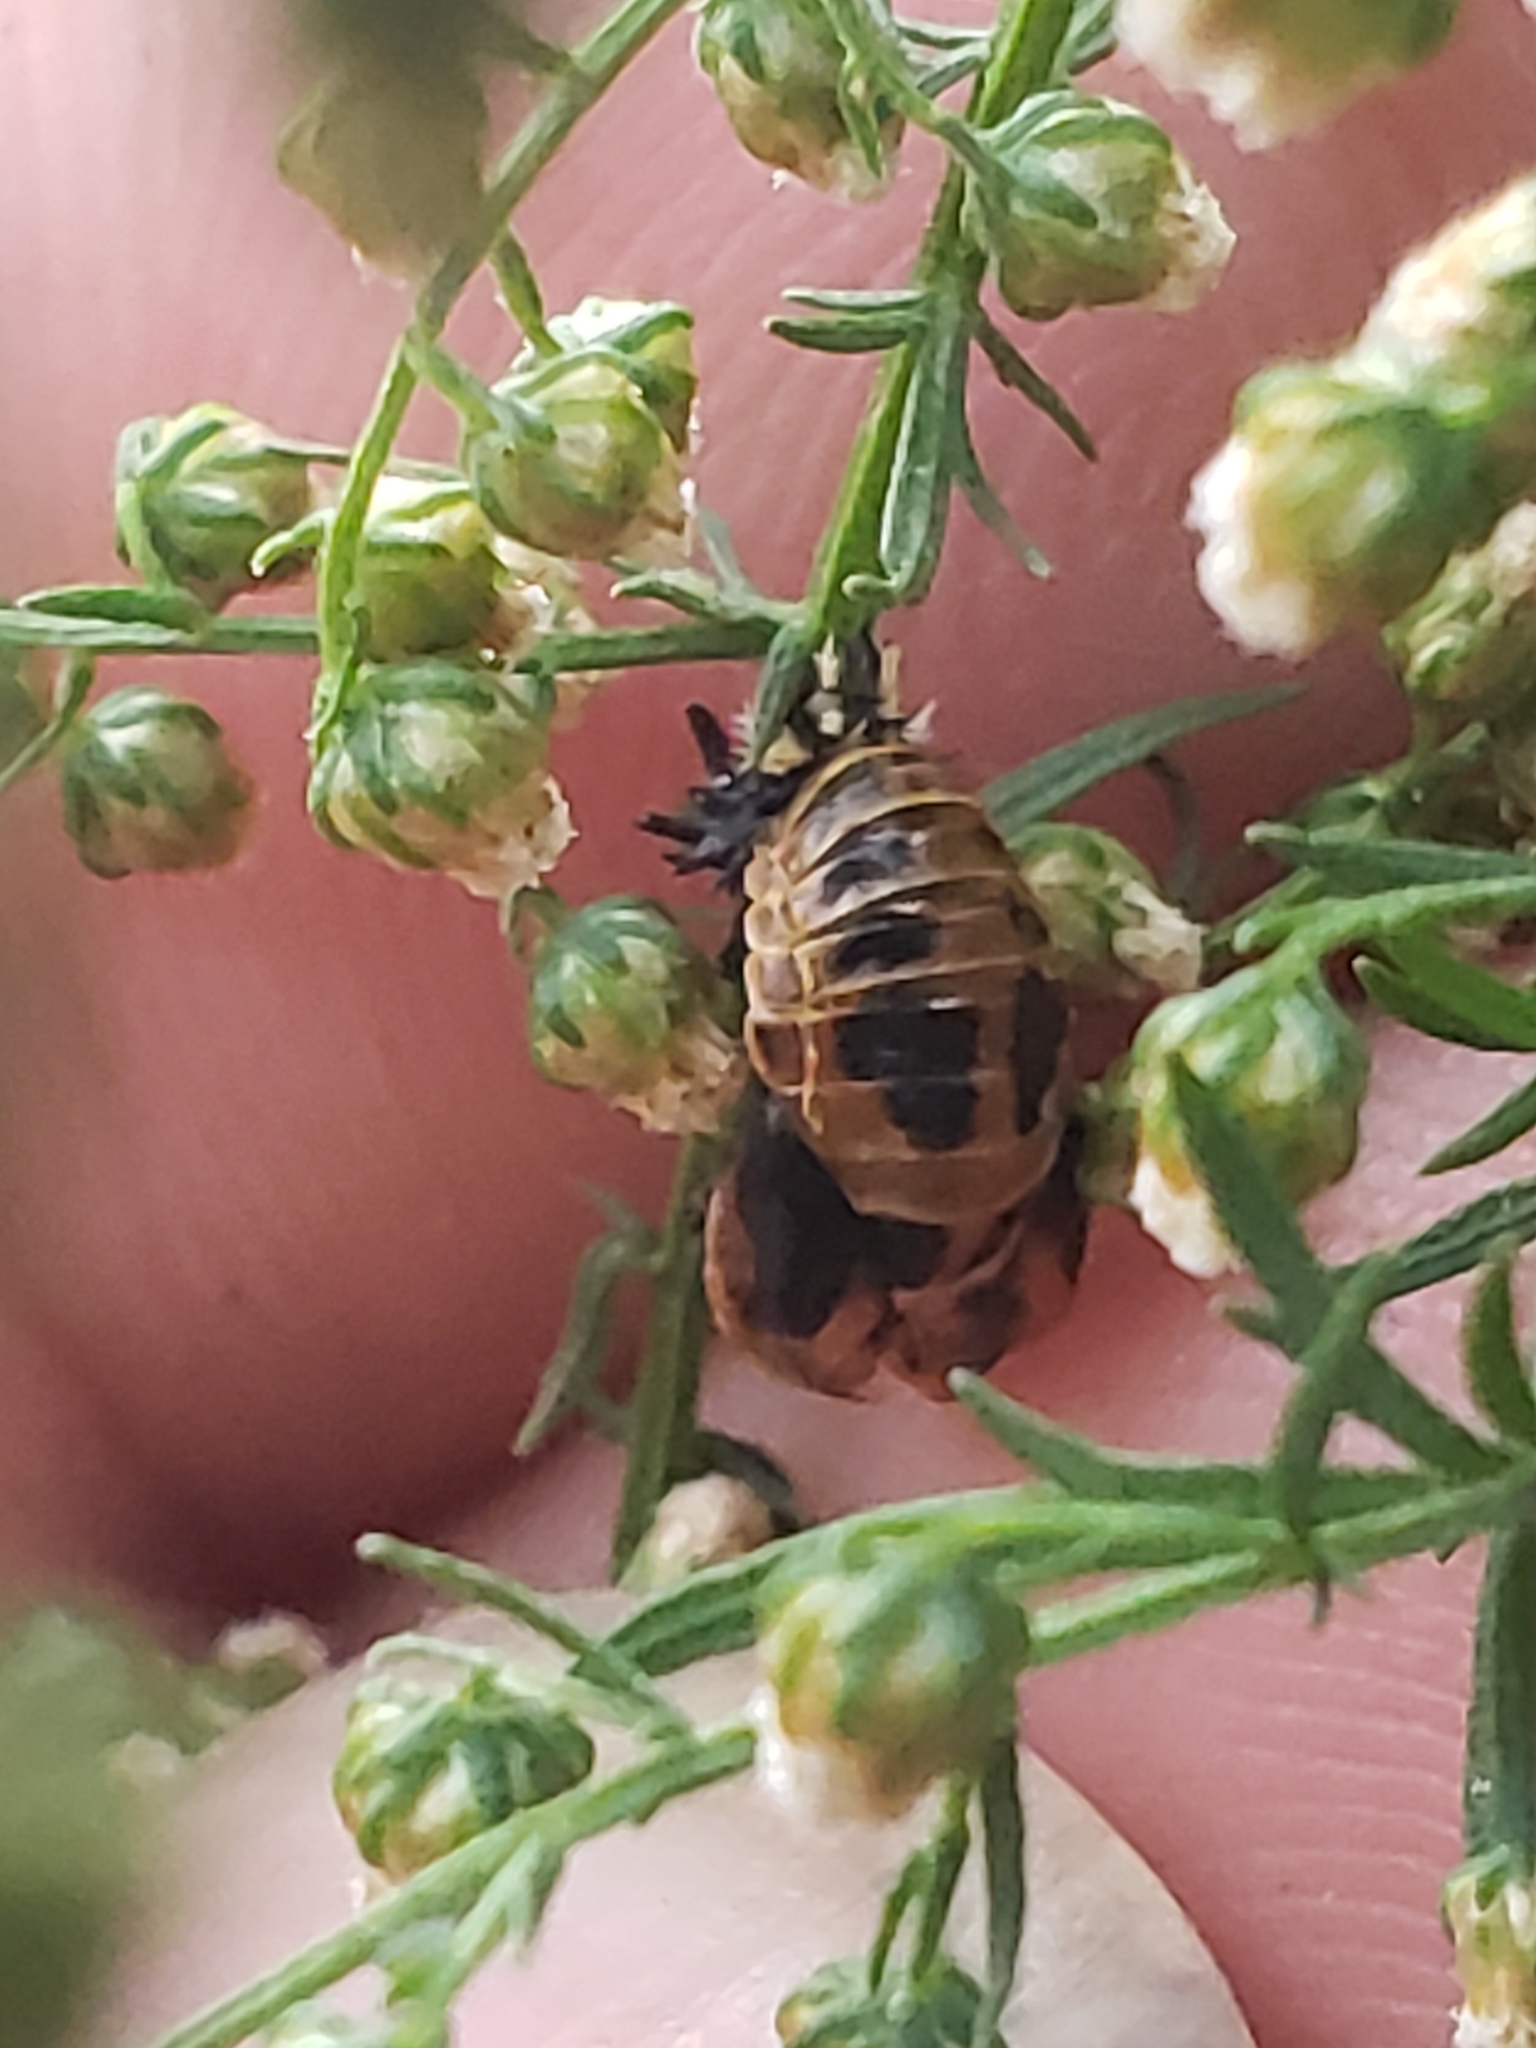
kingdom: Animalia
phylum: Arthropoda
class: Insecta
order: Coleoptera
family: Coccinellidae
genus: Harmonia
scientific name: Harmonia axyridis
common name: Harlequin ladybird
